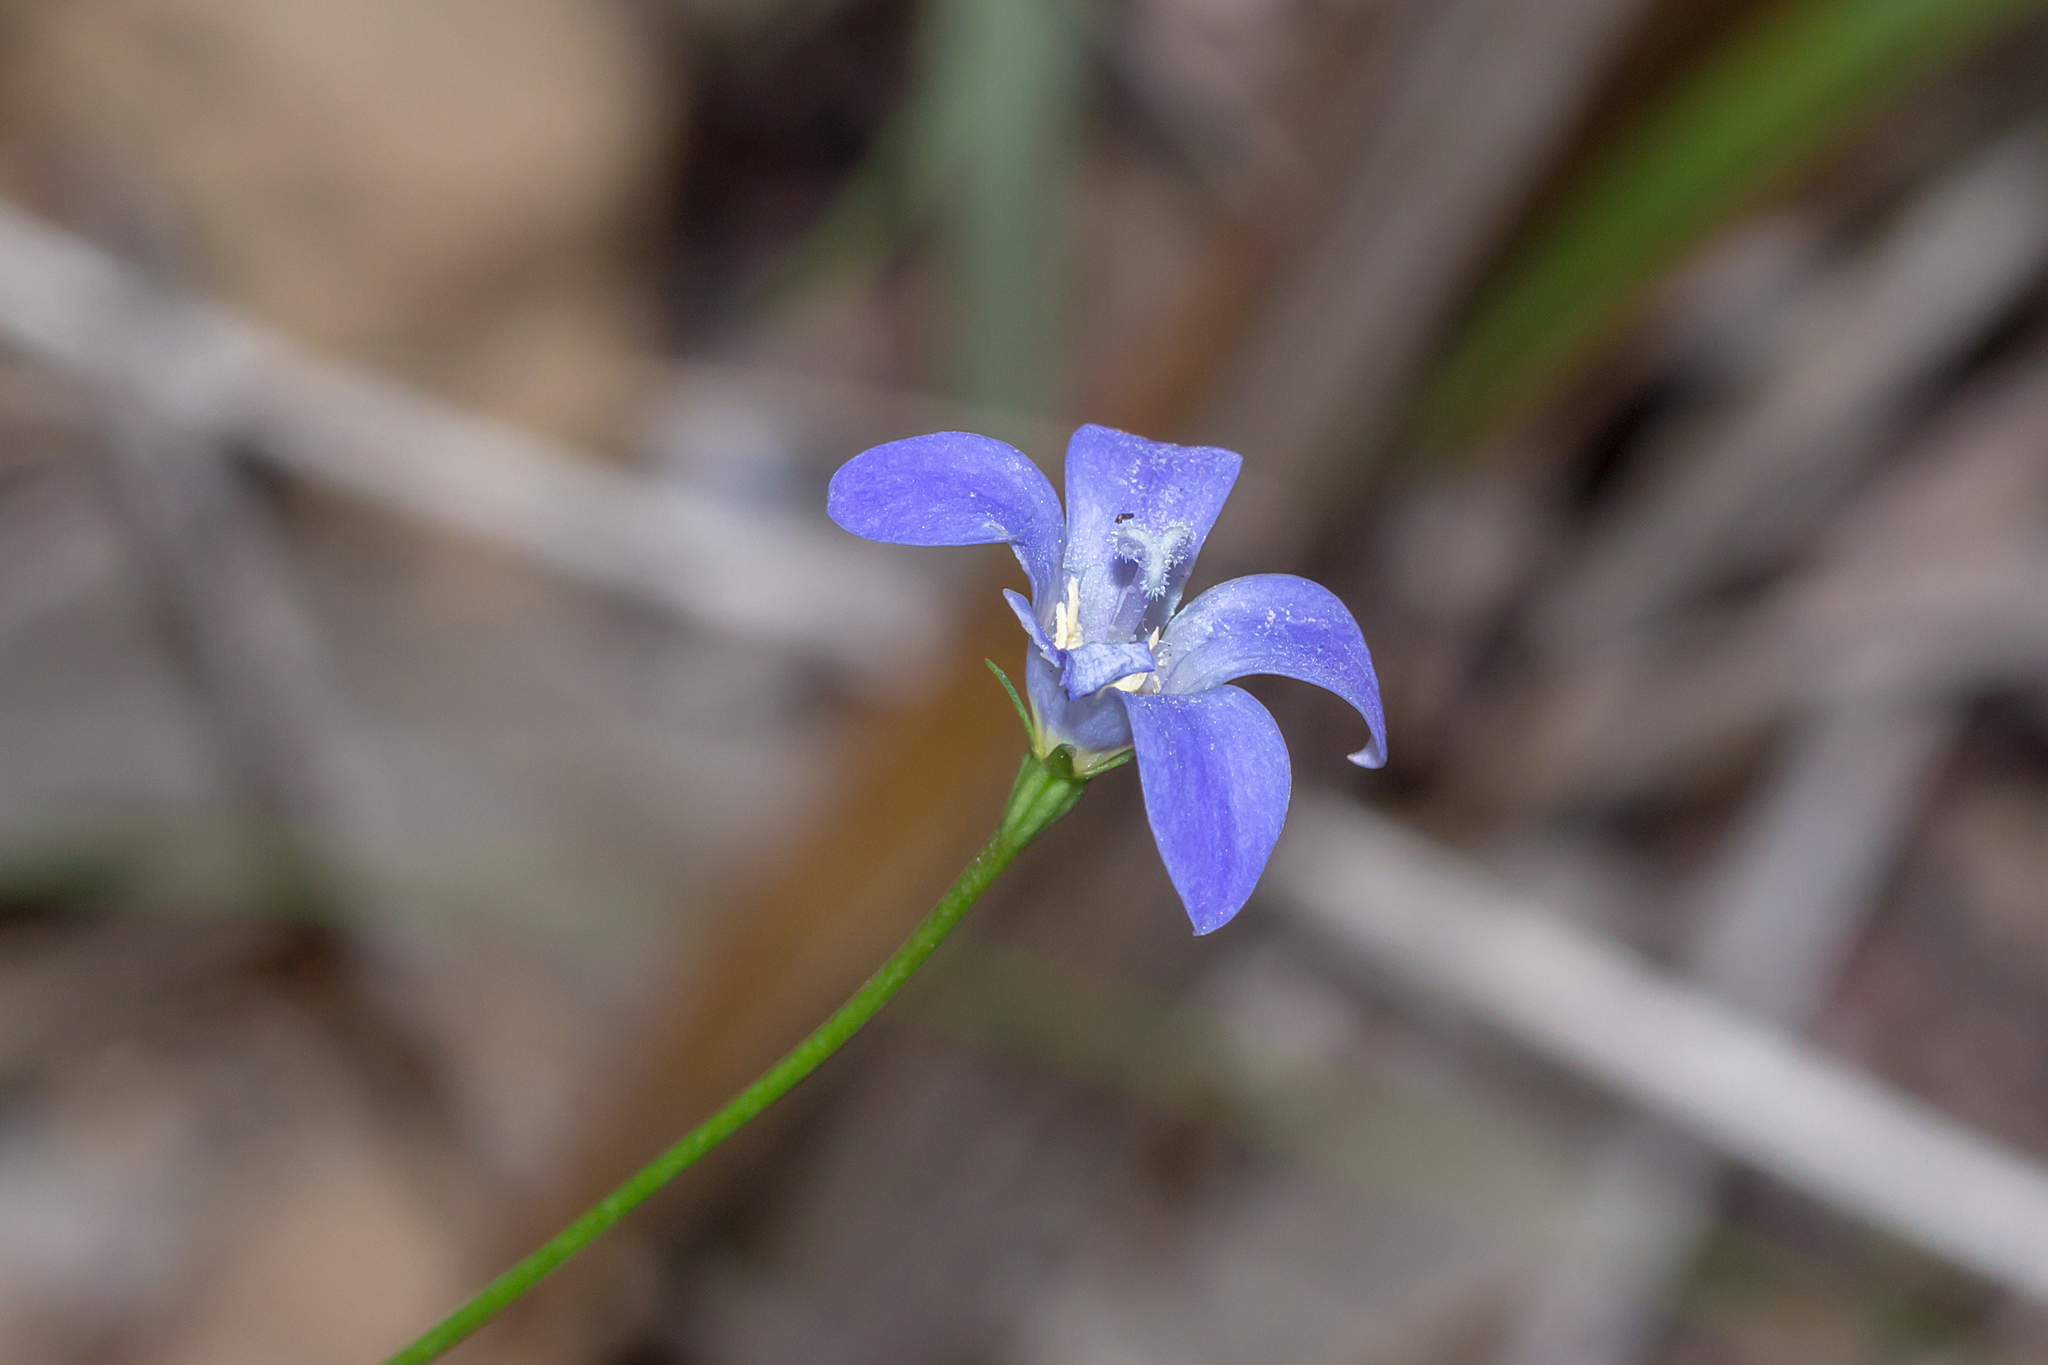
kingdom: Plantae
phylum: Tracheophyta
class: Magnoliopsida
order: Asterales
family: Campanulaceae
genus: Wahlenbergia
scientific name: Wahlenbergia capillaris
